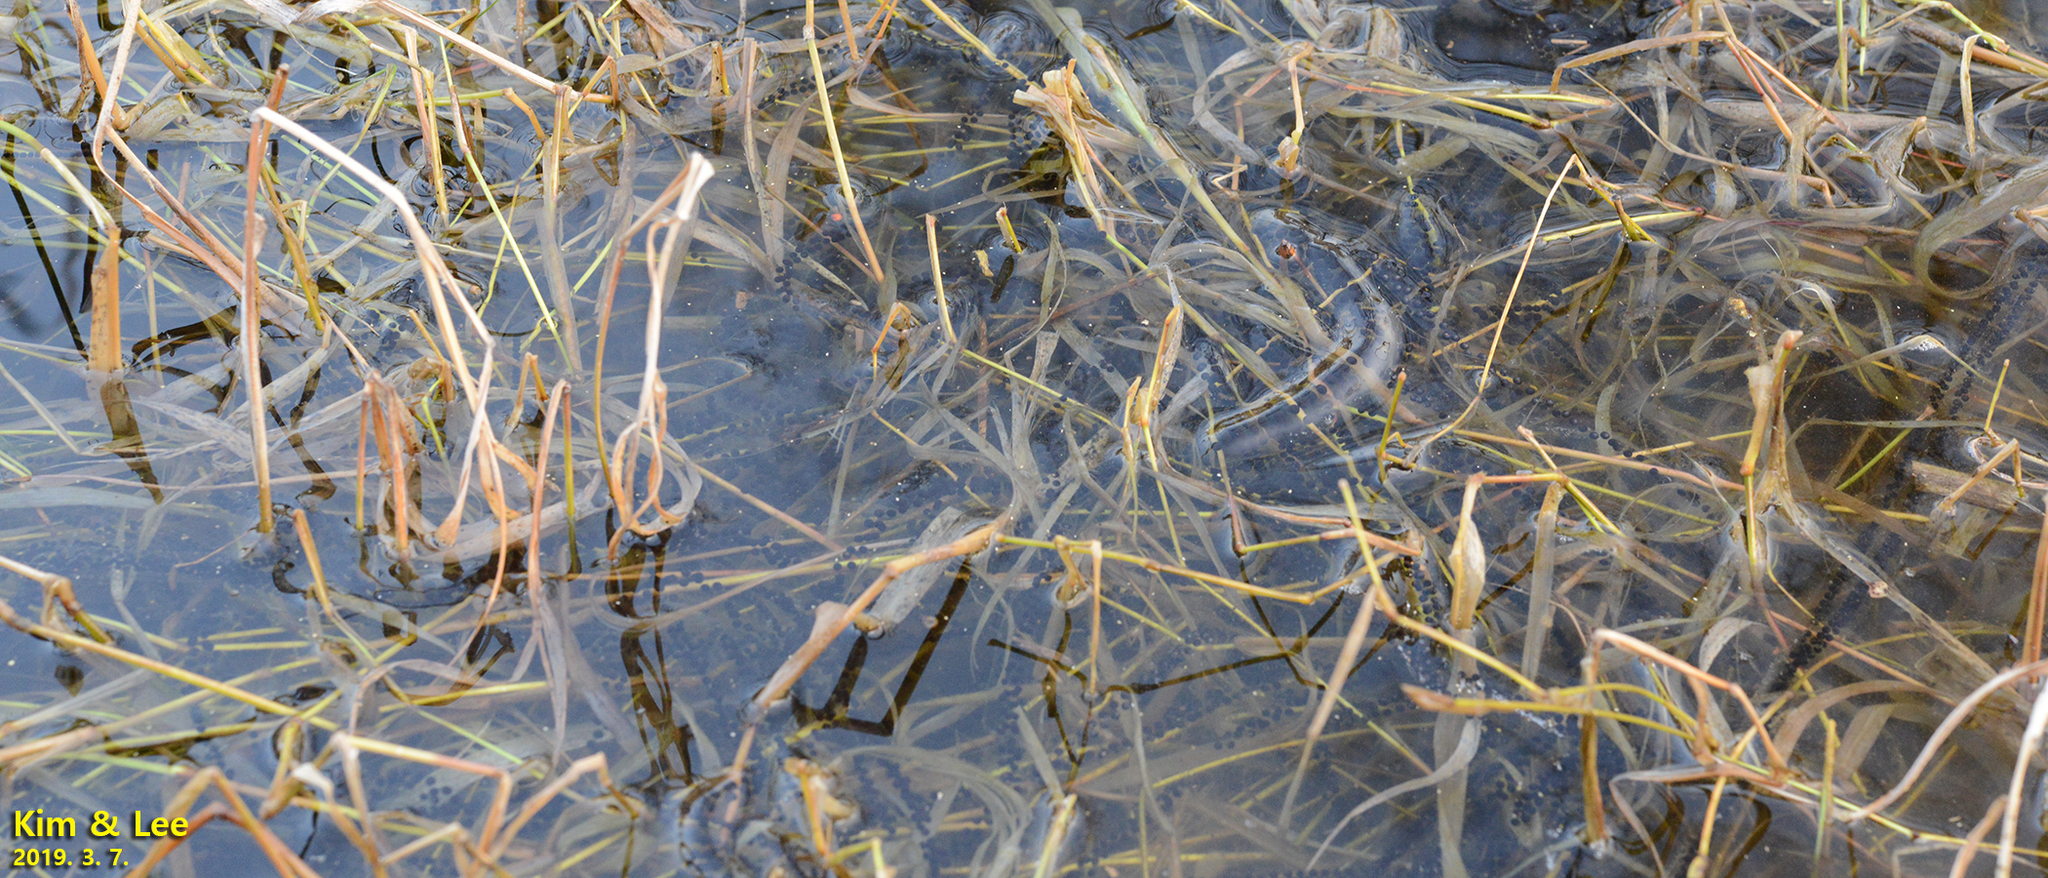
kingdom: Animalia
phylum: Chordata
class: Amphibia
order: Anura
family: Bufonidae
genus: Bufo
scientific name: Bufo gargarizans
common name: Asiatic toad
